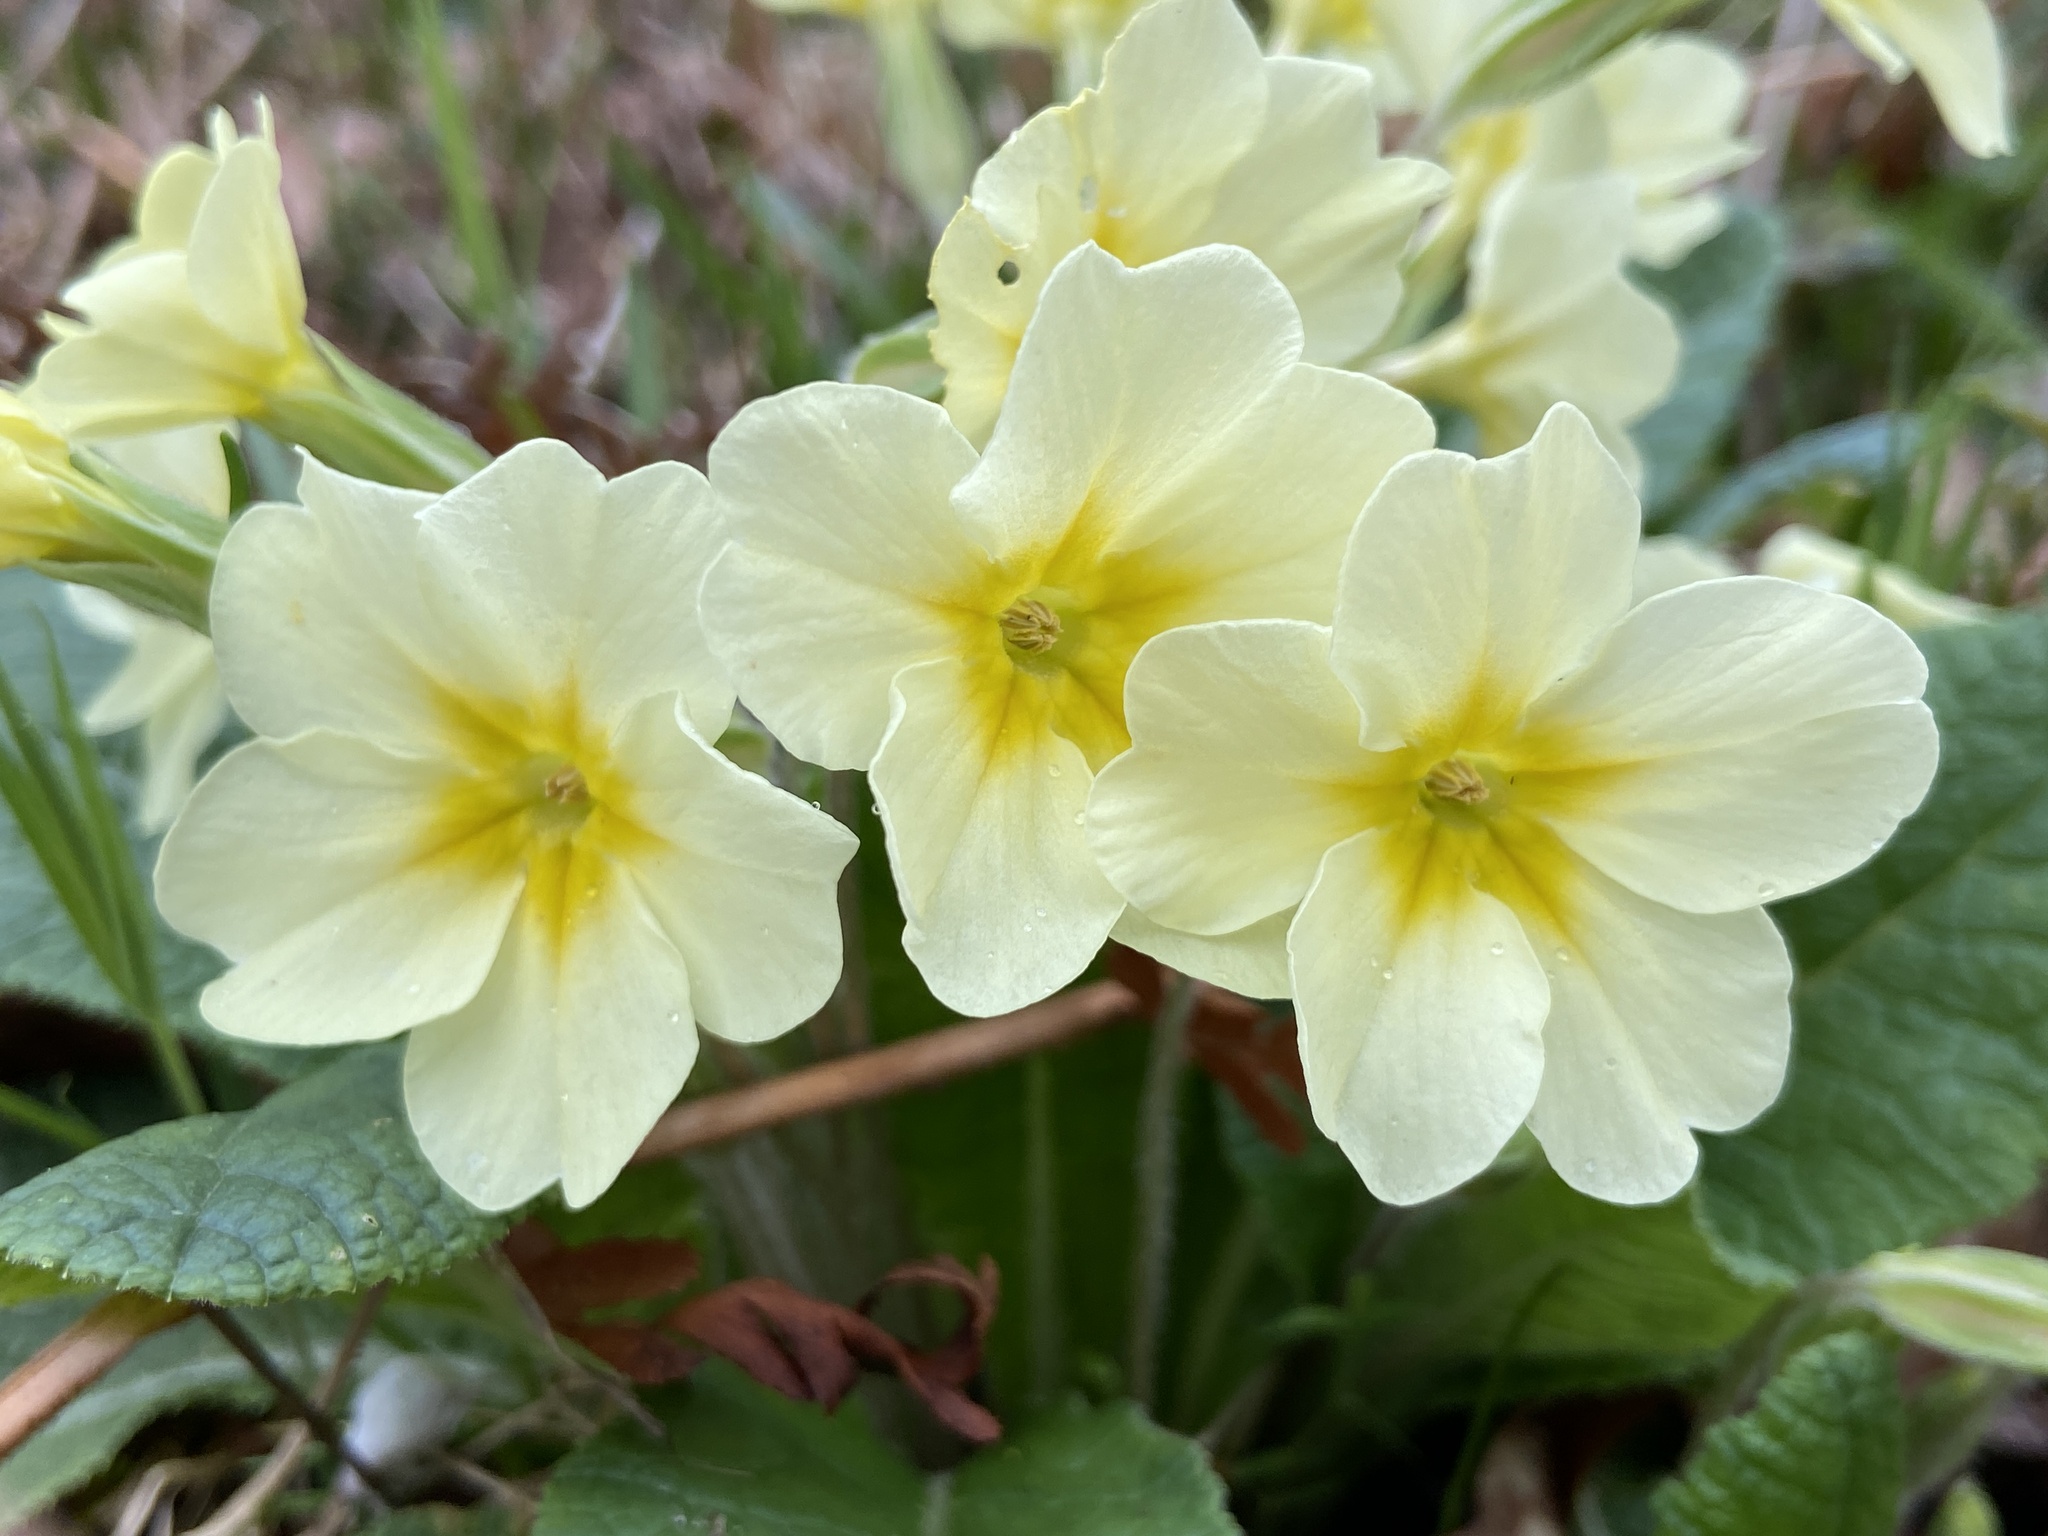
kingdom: Plantae
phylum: Tracheophyta
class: Magnoliopsida
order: Ericales
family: Primulaceae
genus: Primula
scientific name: Primula vulgaris
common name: Primrose
